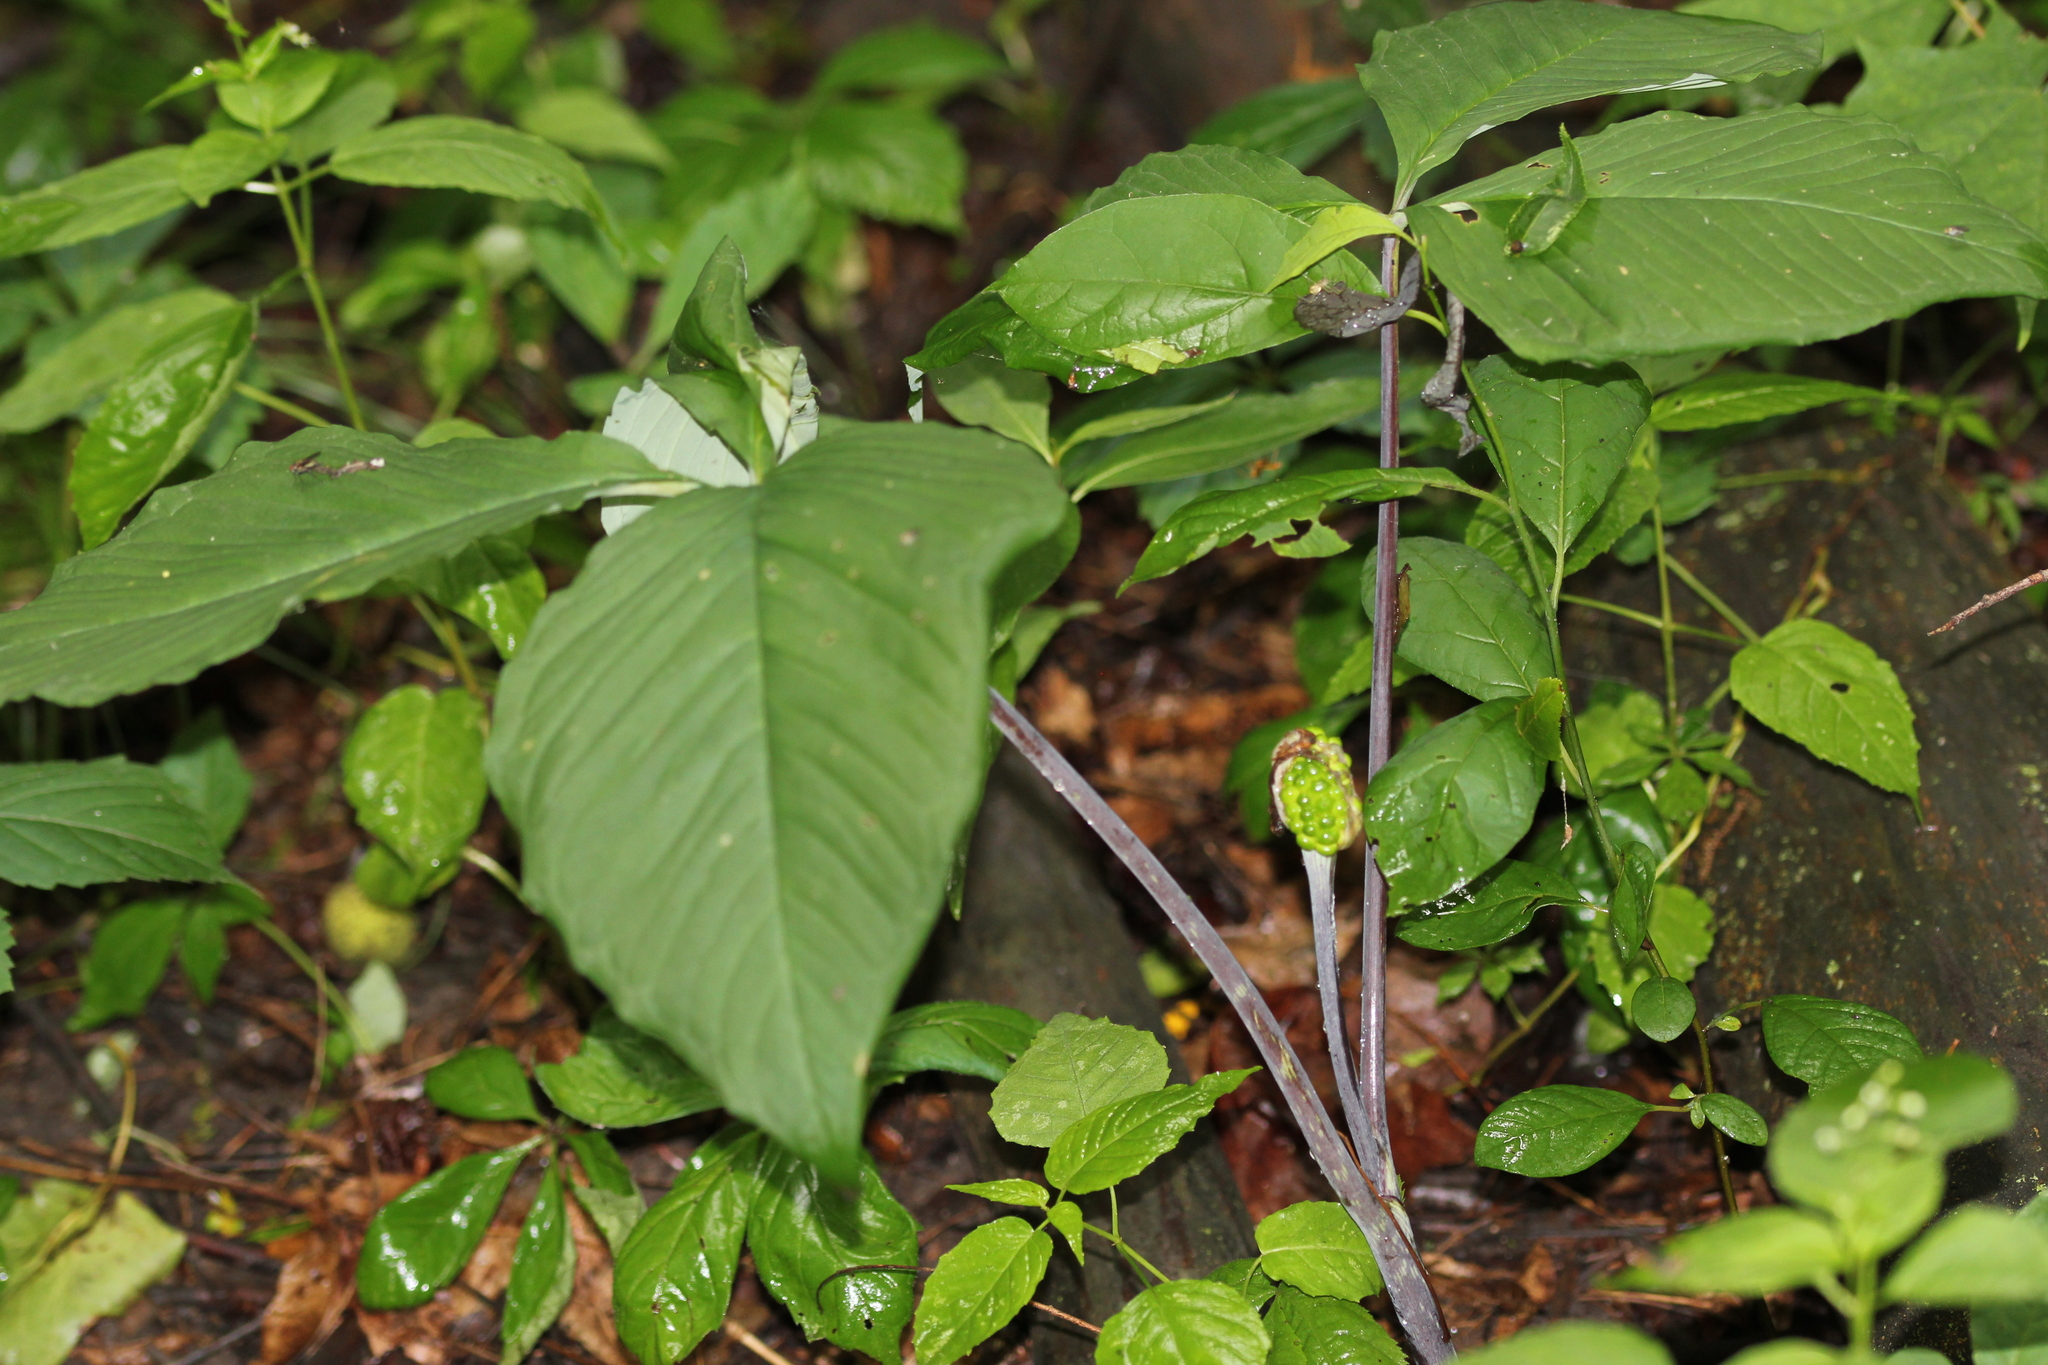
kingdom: Plantae
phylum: Tracheophyta
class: Liliopsida
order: Alismatales
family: Araceae
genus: Arisaema
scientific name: Arisaema triphyllum
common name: Jack-in-the-pulpit
